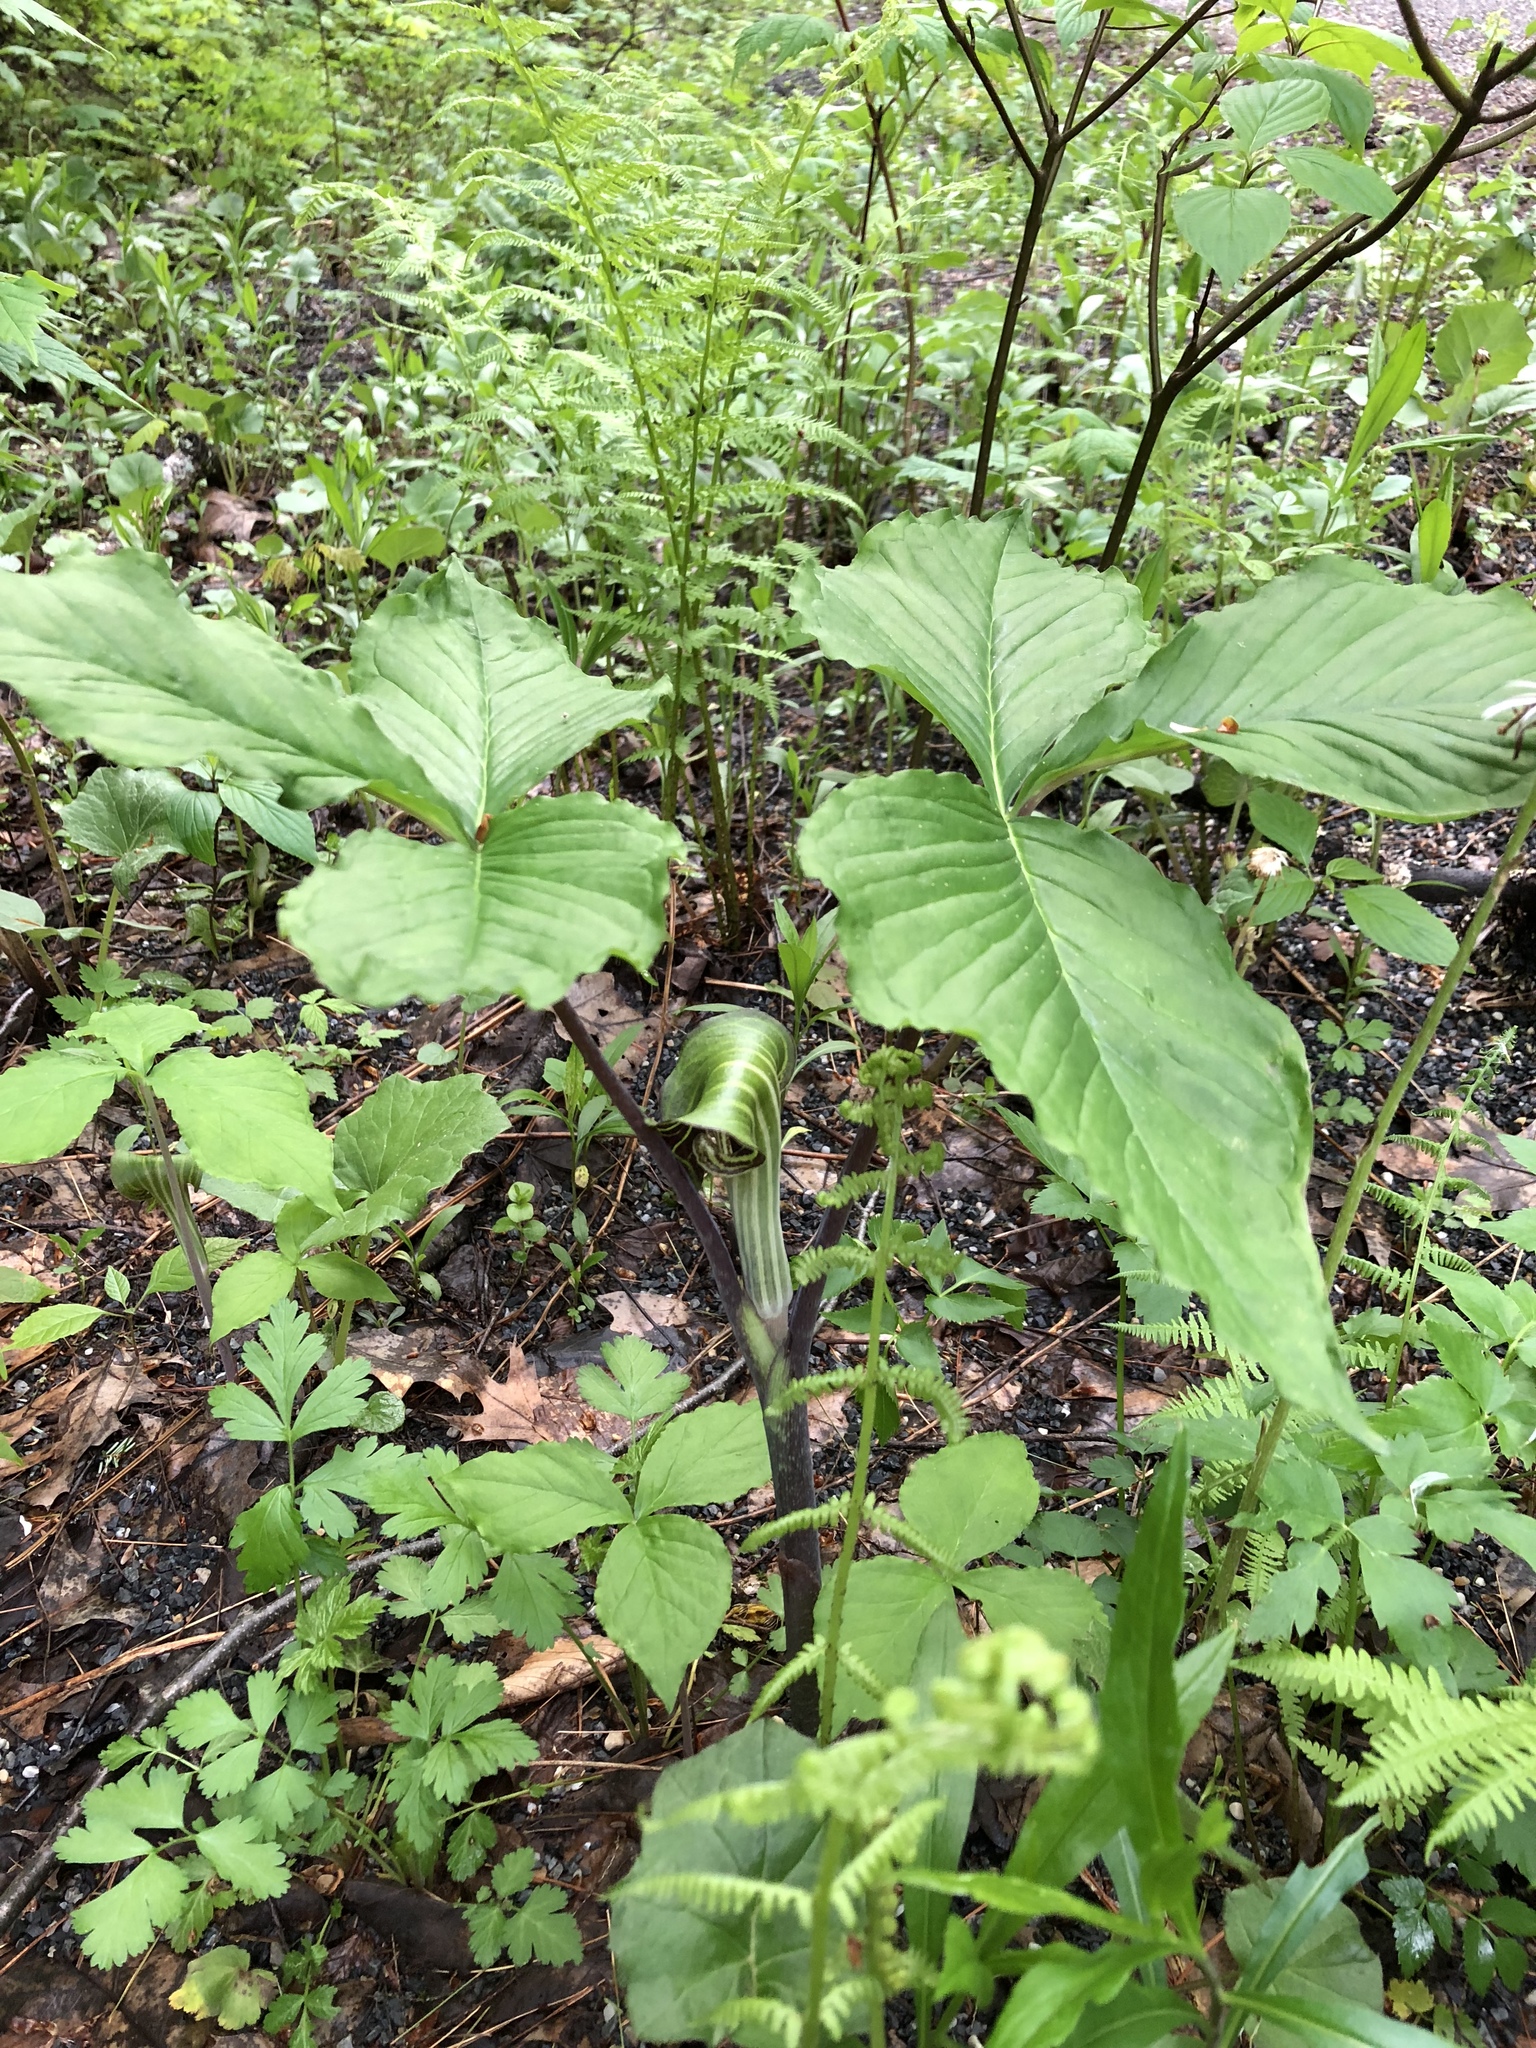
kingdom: Plantae
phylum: Tracheophyta
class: Liliopsida
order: Alismatales
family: Araceae
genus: Arisaema
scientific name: Arisaema triphyllum
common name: Jack-in-the-pulpit
